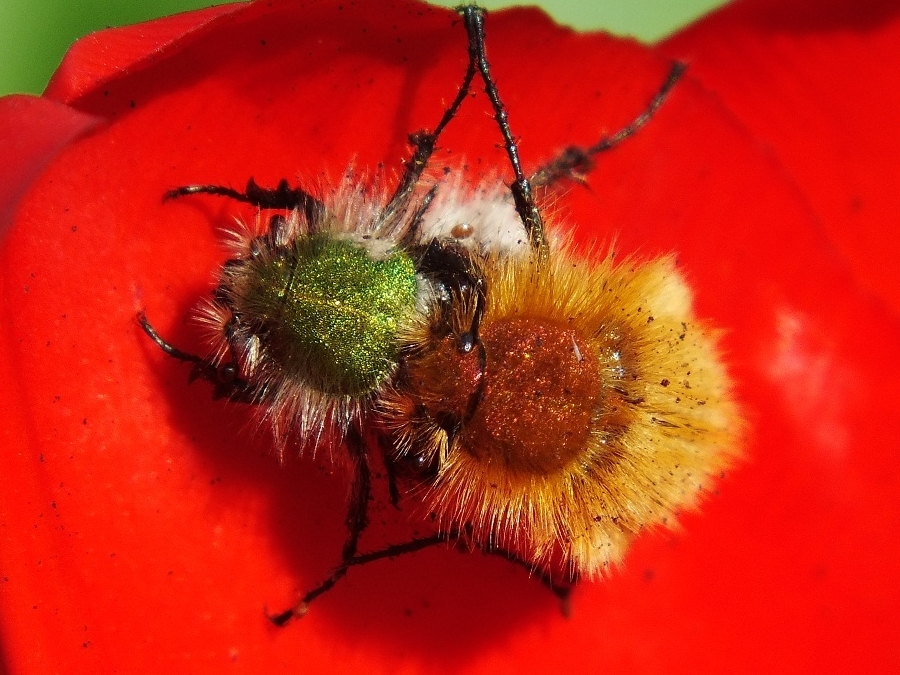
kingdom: Animalia
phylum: Arthropoda
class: Insecta
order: Coleoptera
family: Glaphyridae
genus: Pygopleurus
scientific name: Pygopleurus vulpes
